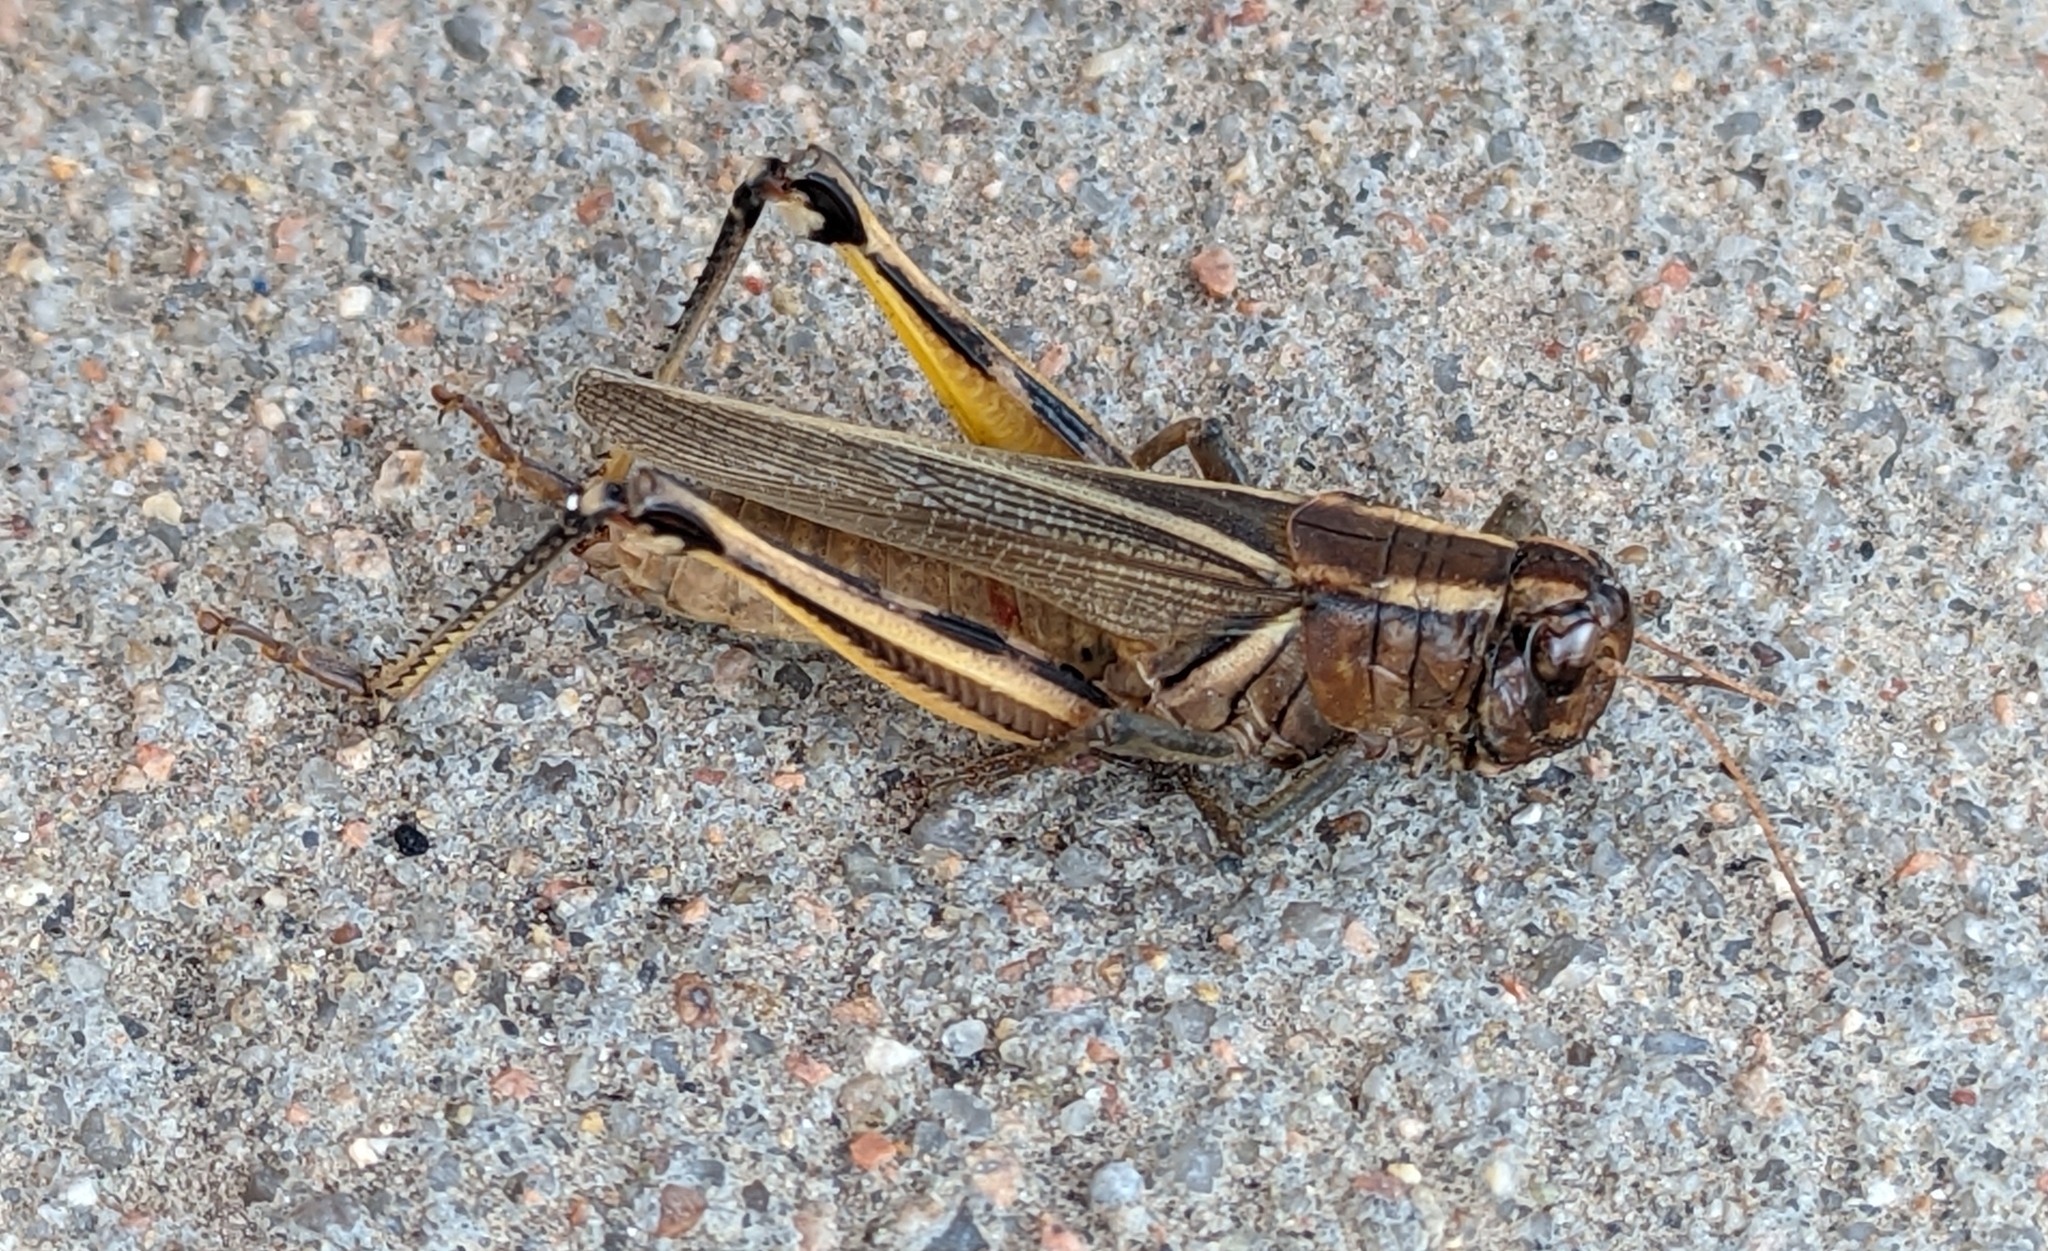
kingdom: Animalia
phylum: Arthropoda
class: Insecta
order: Orthoptera
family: Acrididae
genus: Melanoplus
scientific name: Melanoplus bivittatus
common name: Two-striped grasshopper
